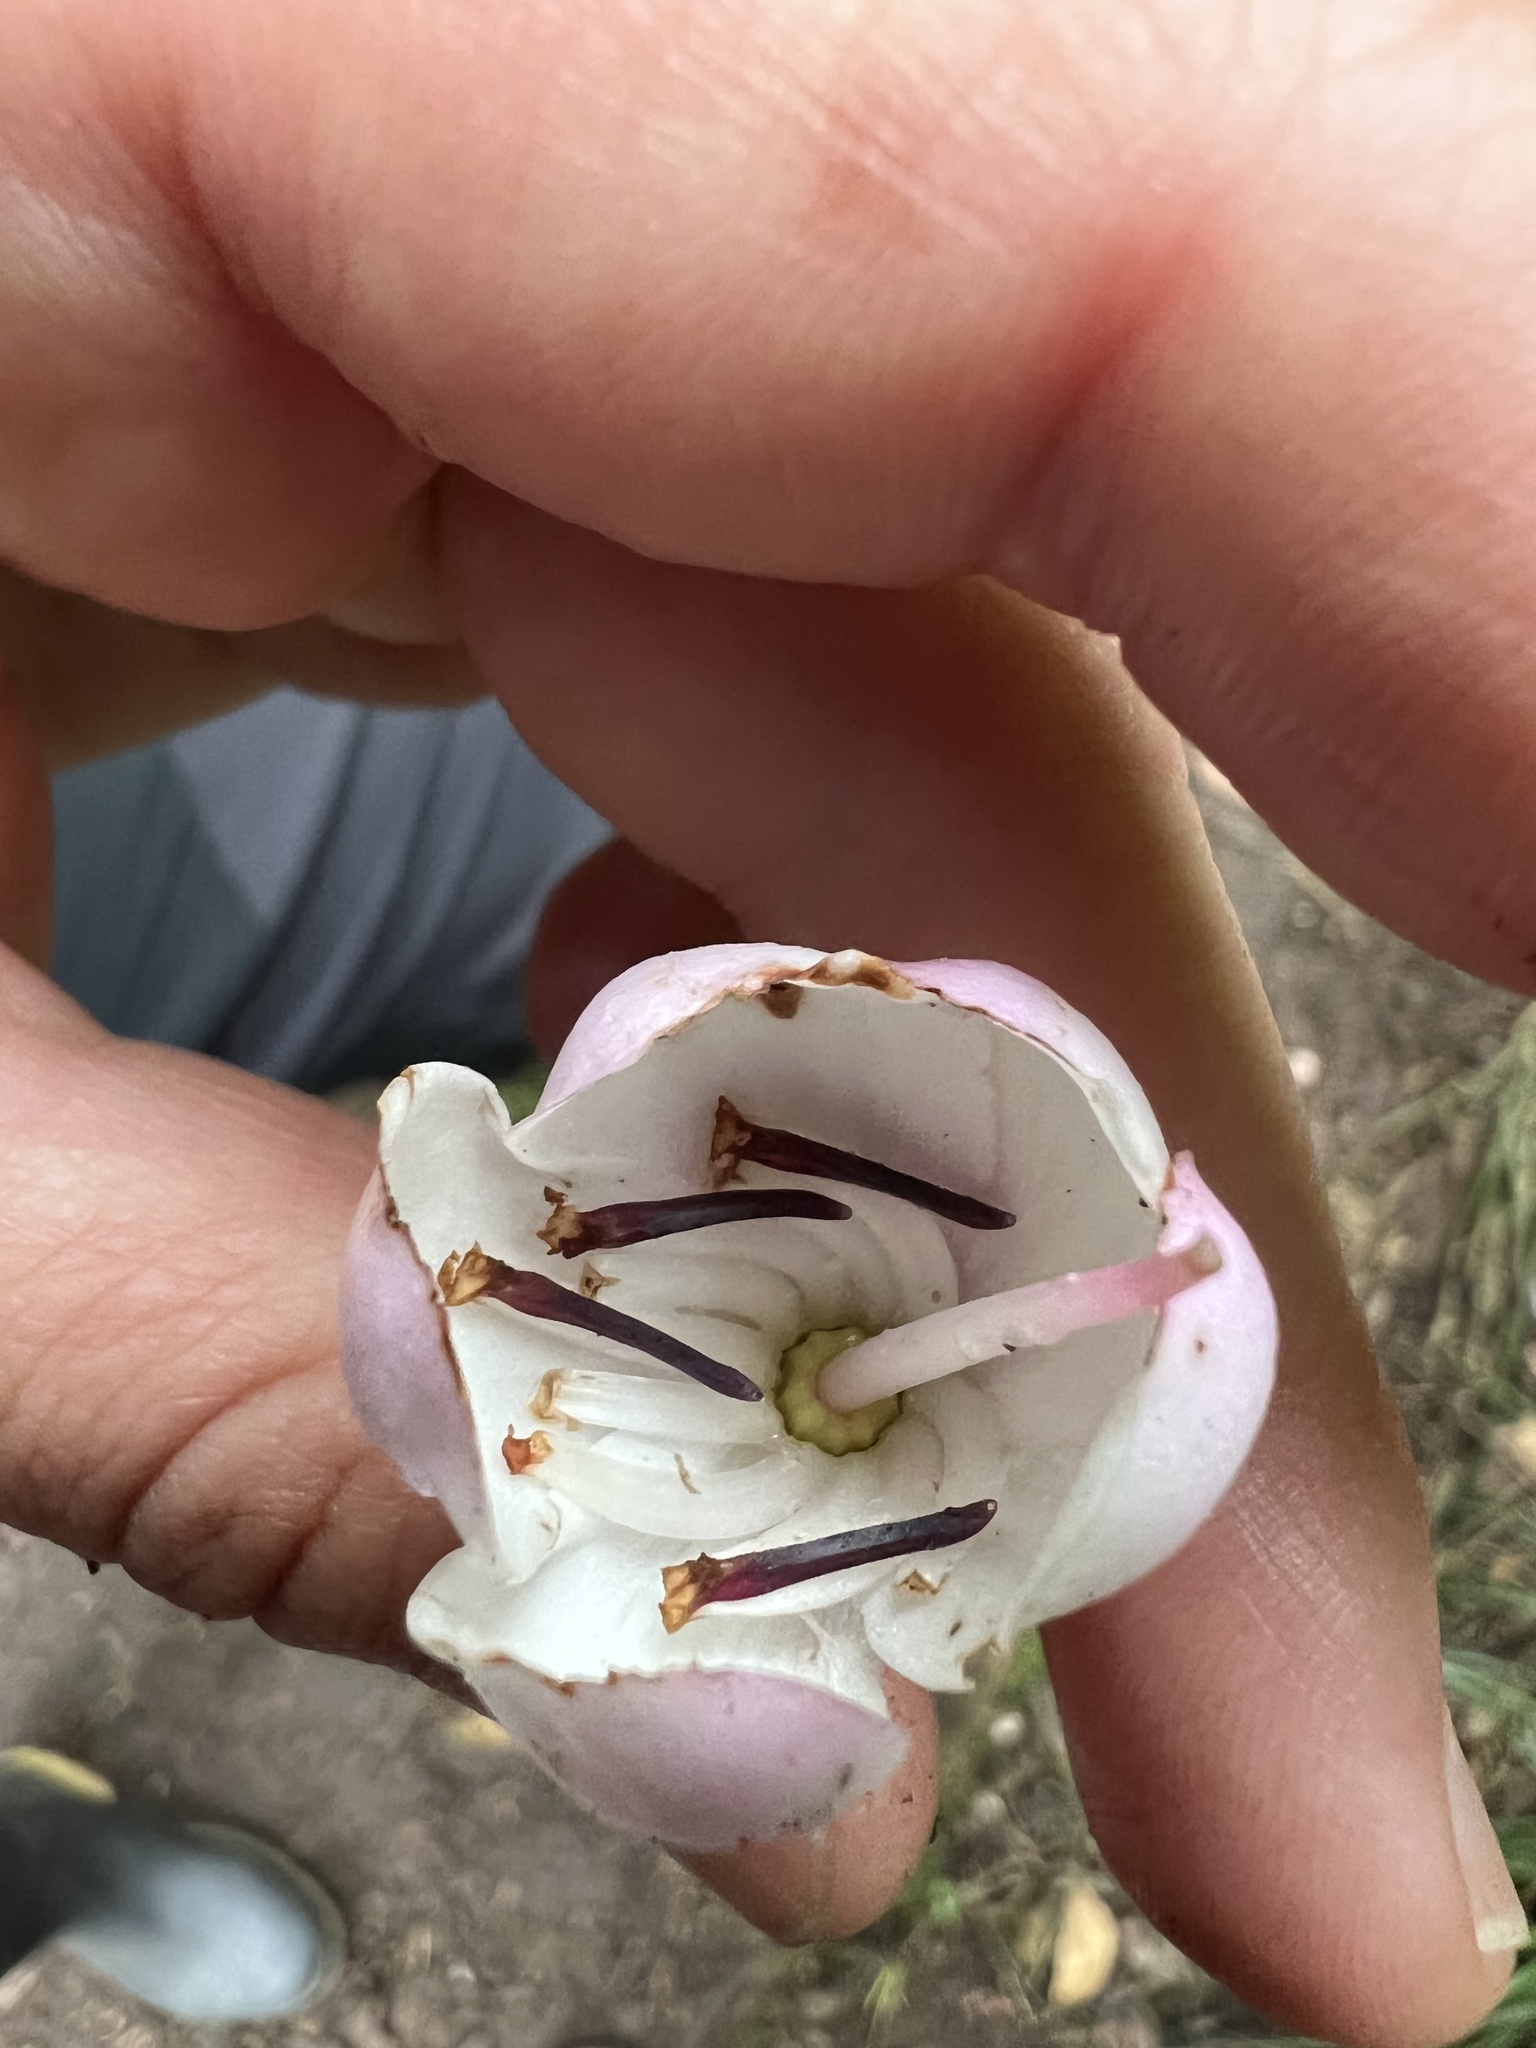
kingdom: Plantae
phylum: Tracheophyta
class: Magnoliopsida
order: Myrtales
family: Melastomataceae
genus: Axinaea
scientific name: Axinaea macrophylla
